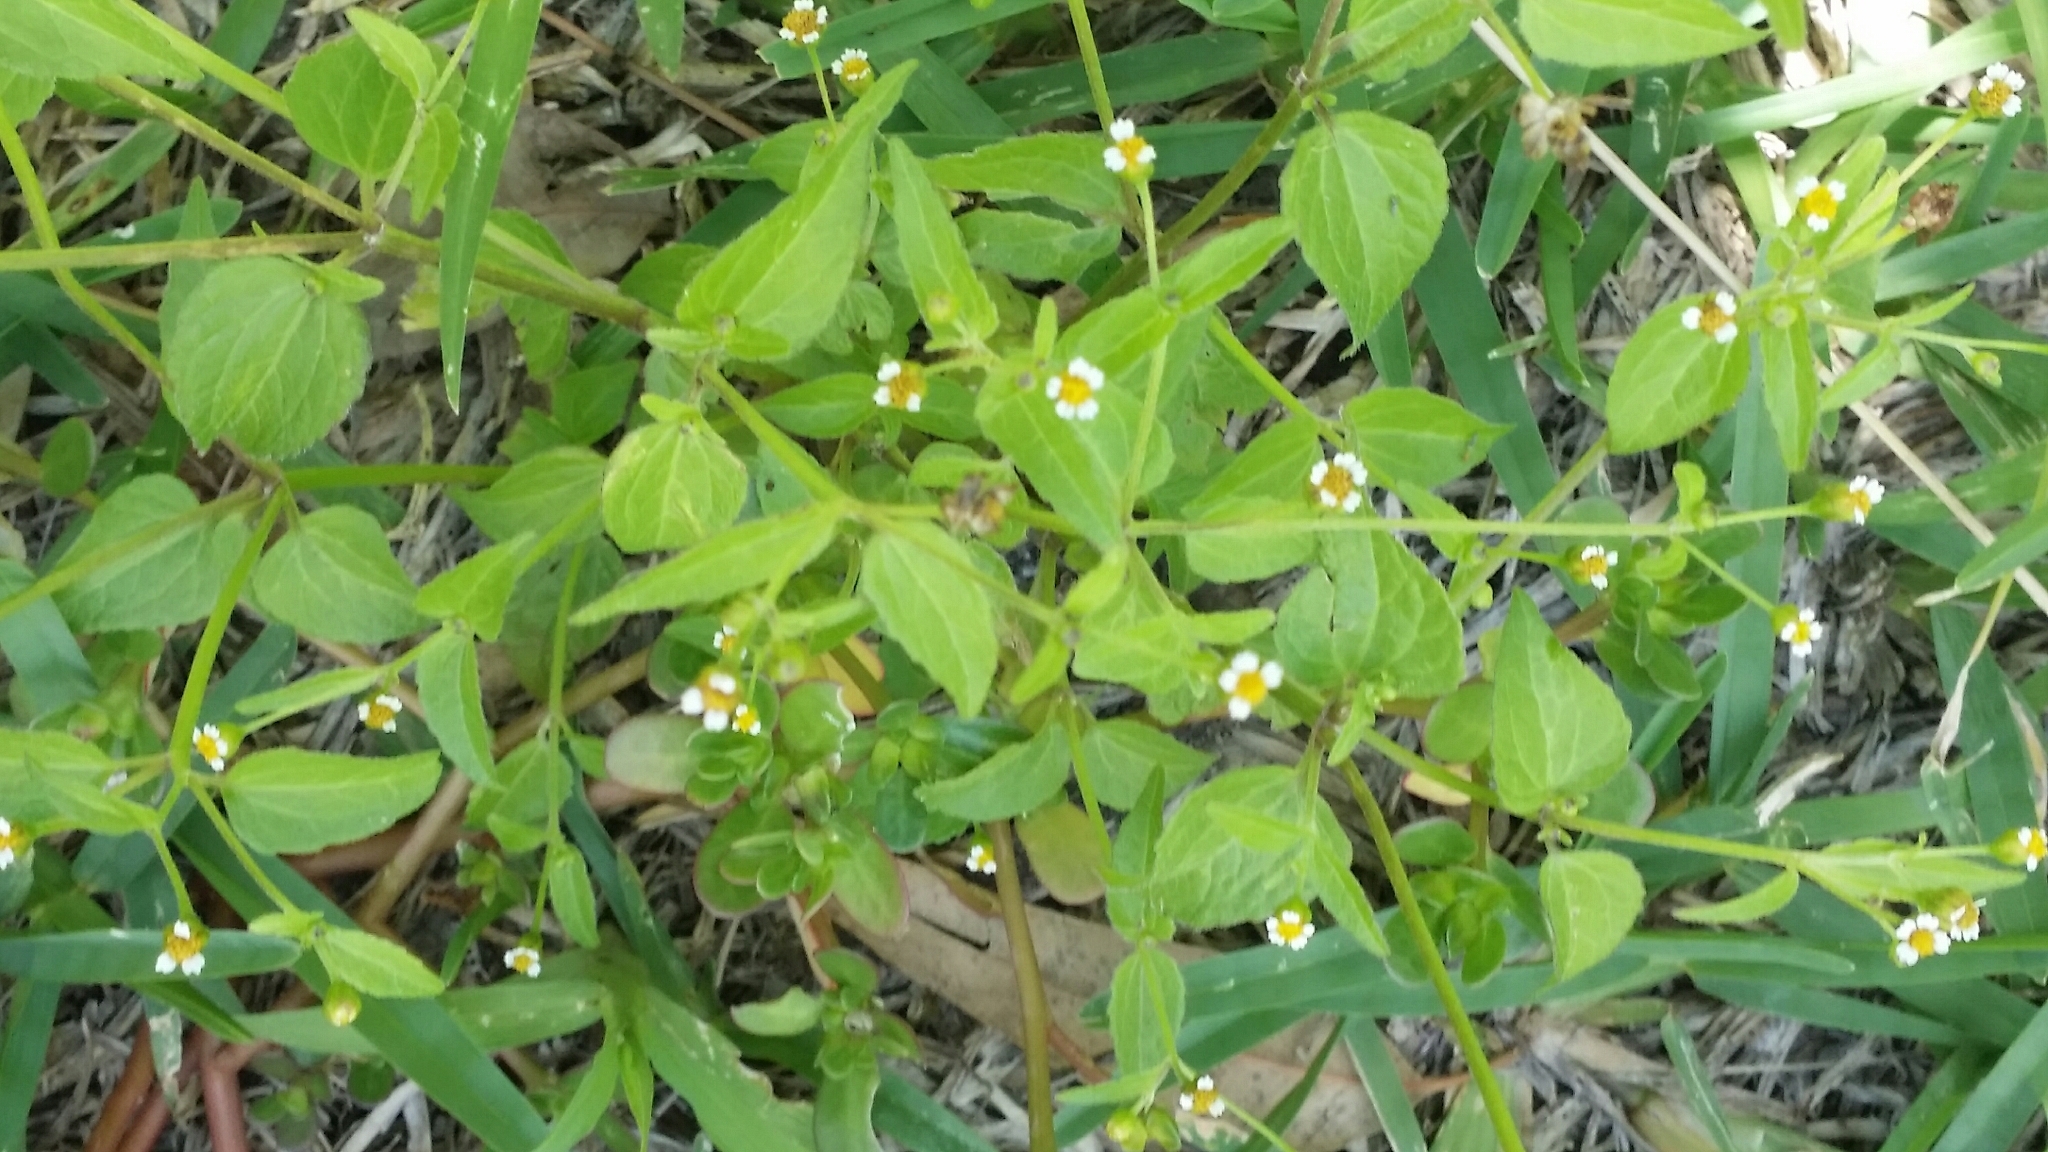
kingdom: Plantae
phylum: Tracheophyta
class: Magnoliopsida
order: Asterales
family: Asteraceae
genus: Galinsoga
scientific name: Galinsoga parviflora
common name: Gallant soldier
